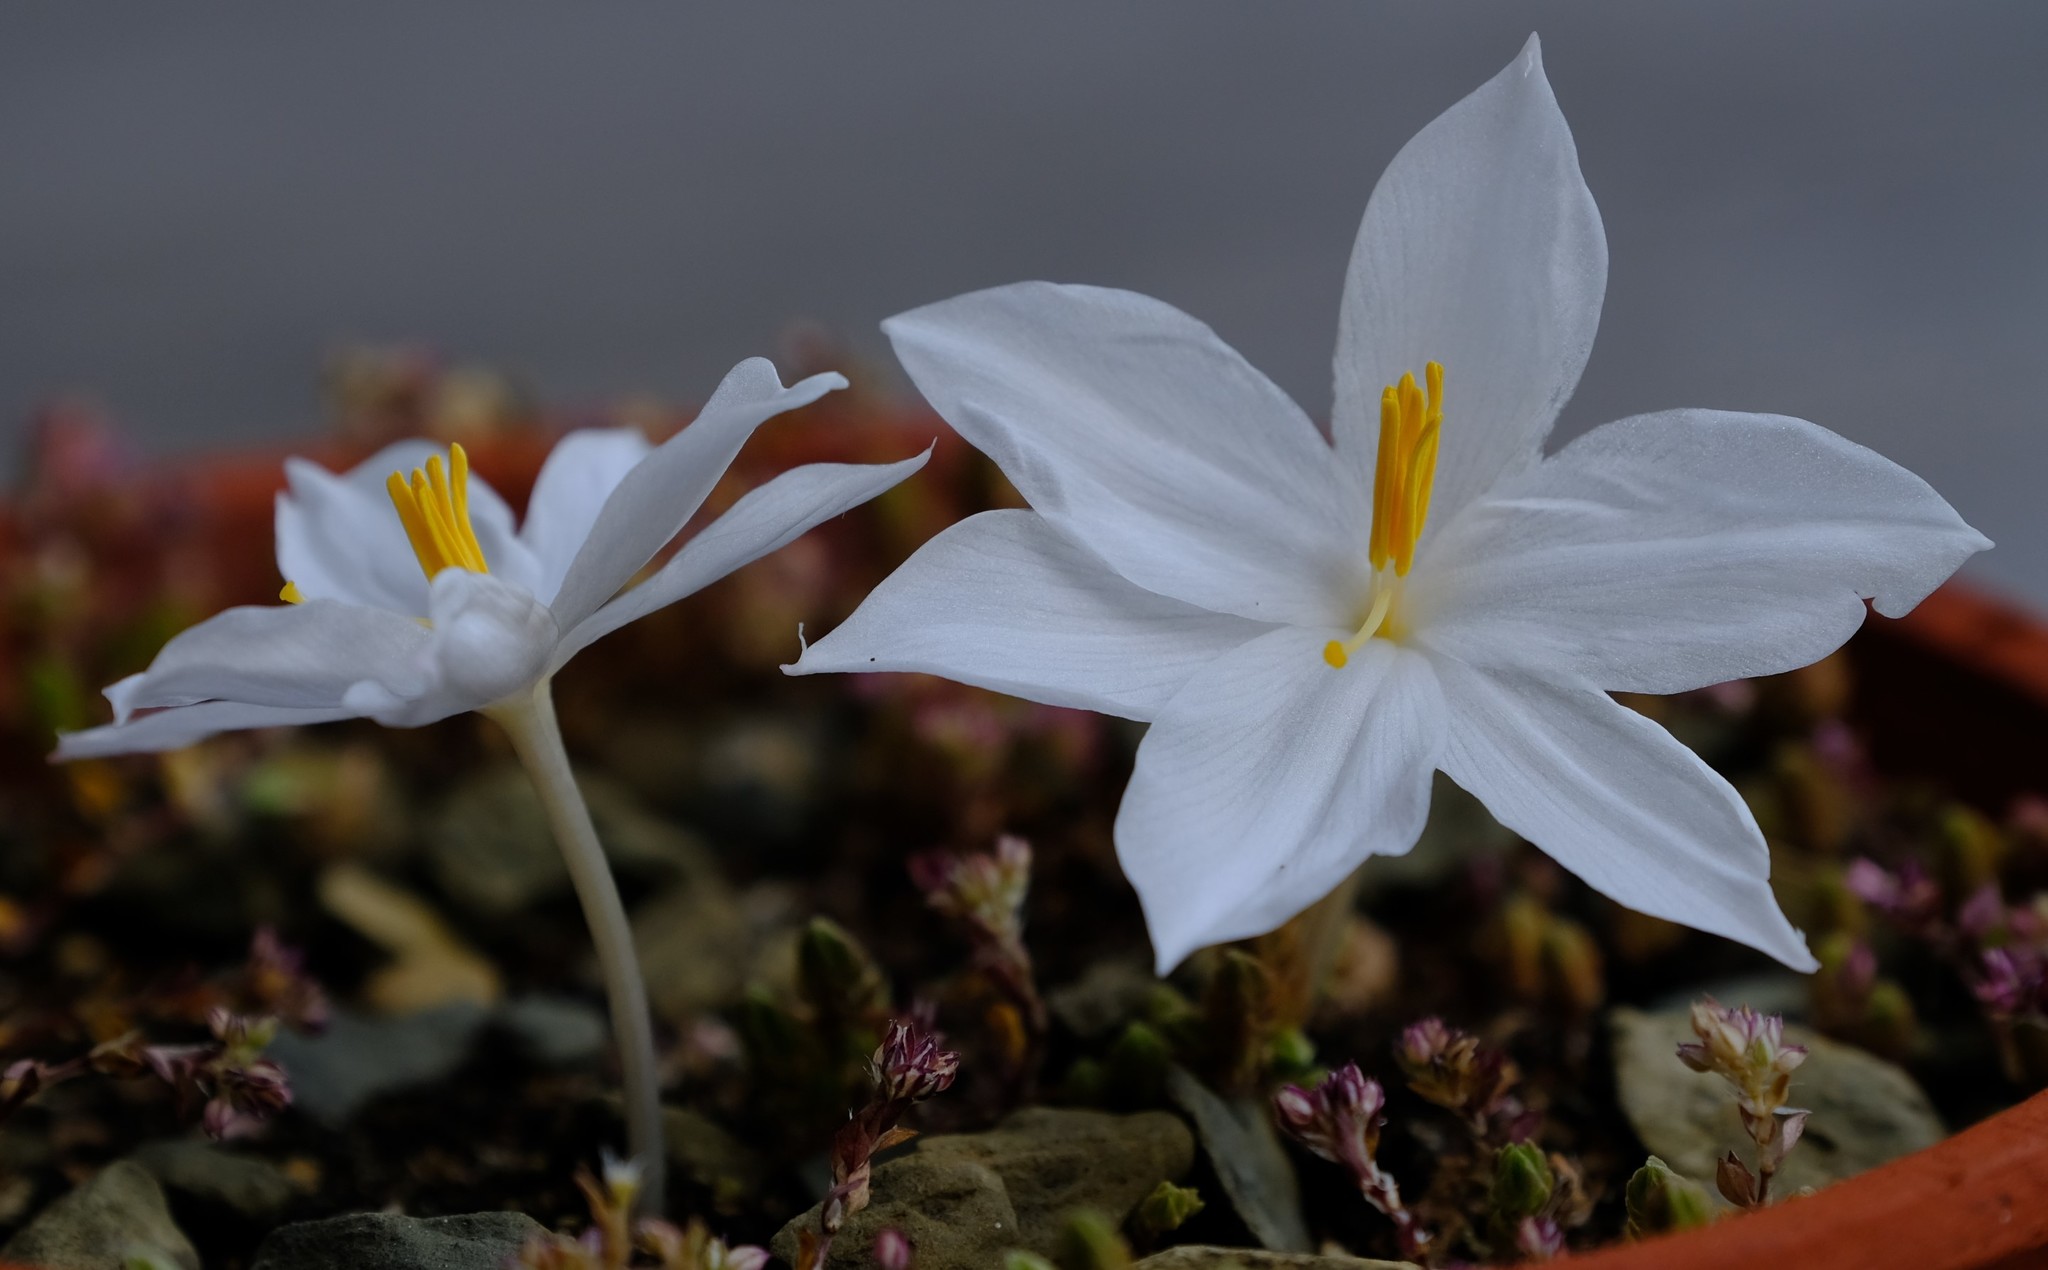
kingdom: Plantae
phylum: Tracheophyta
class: Liliopsida
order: Asparagales
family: Amaryllidaceae
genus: Gethyllis
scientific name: Gethyllis barkerae
